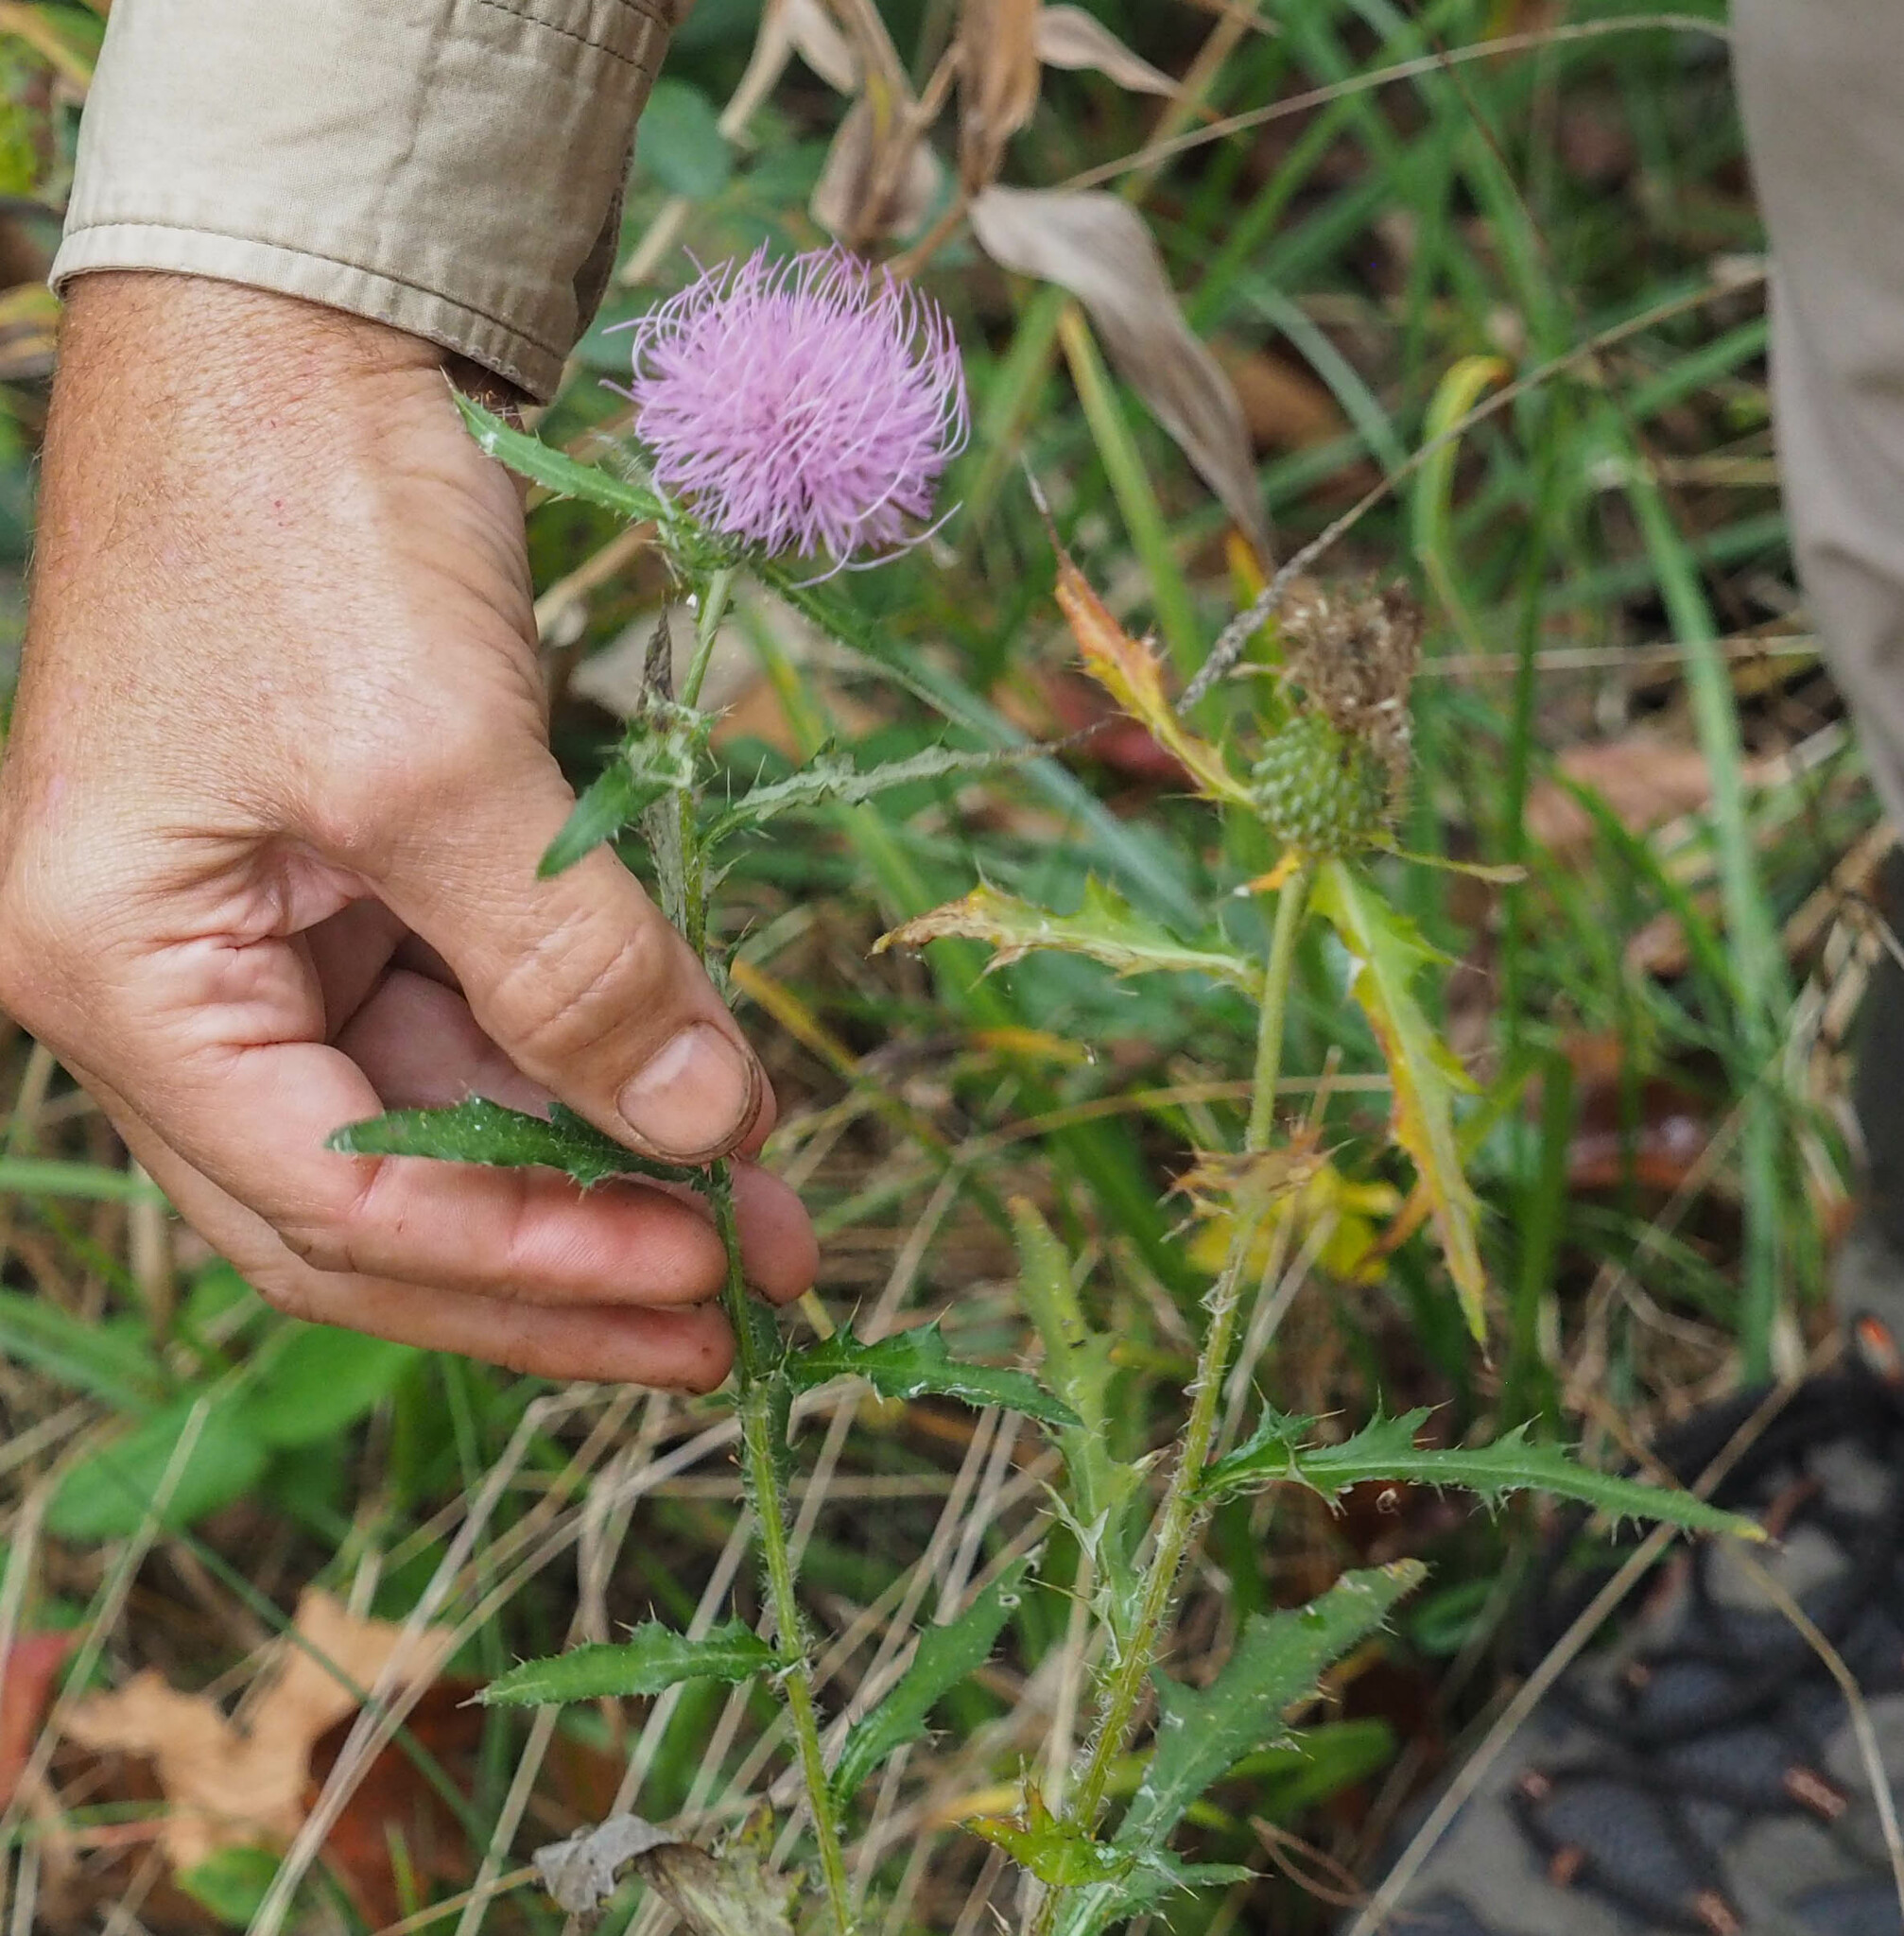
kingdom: Plantae
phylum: Tracheophyta
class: Magnoliopsida
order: Asterales
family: Asteraceae
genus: Cirsium
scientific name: Cirsium discolor
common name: Field thistle
